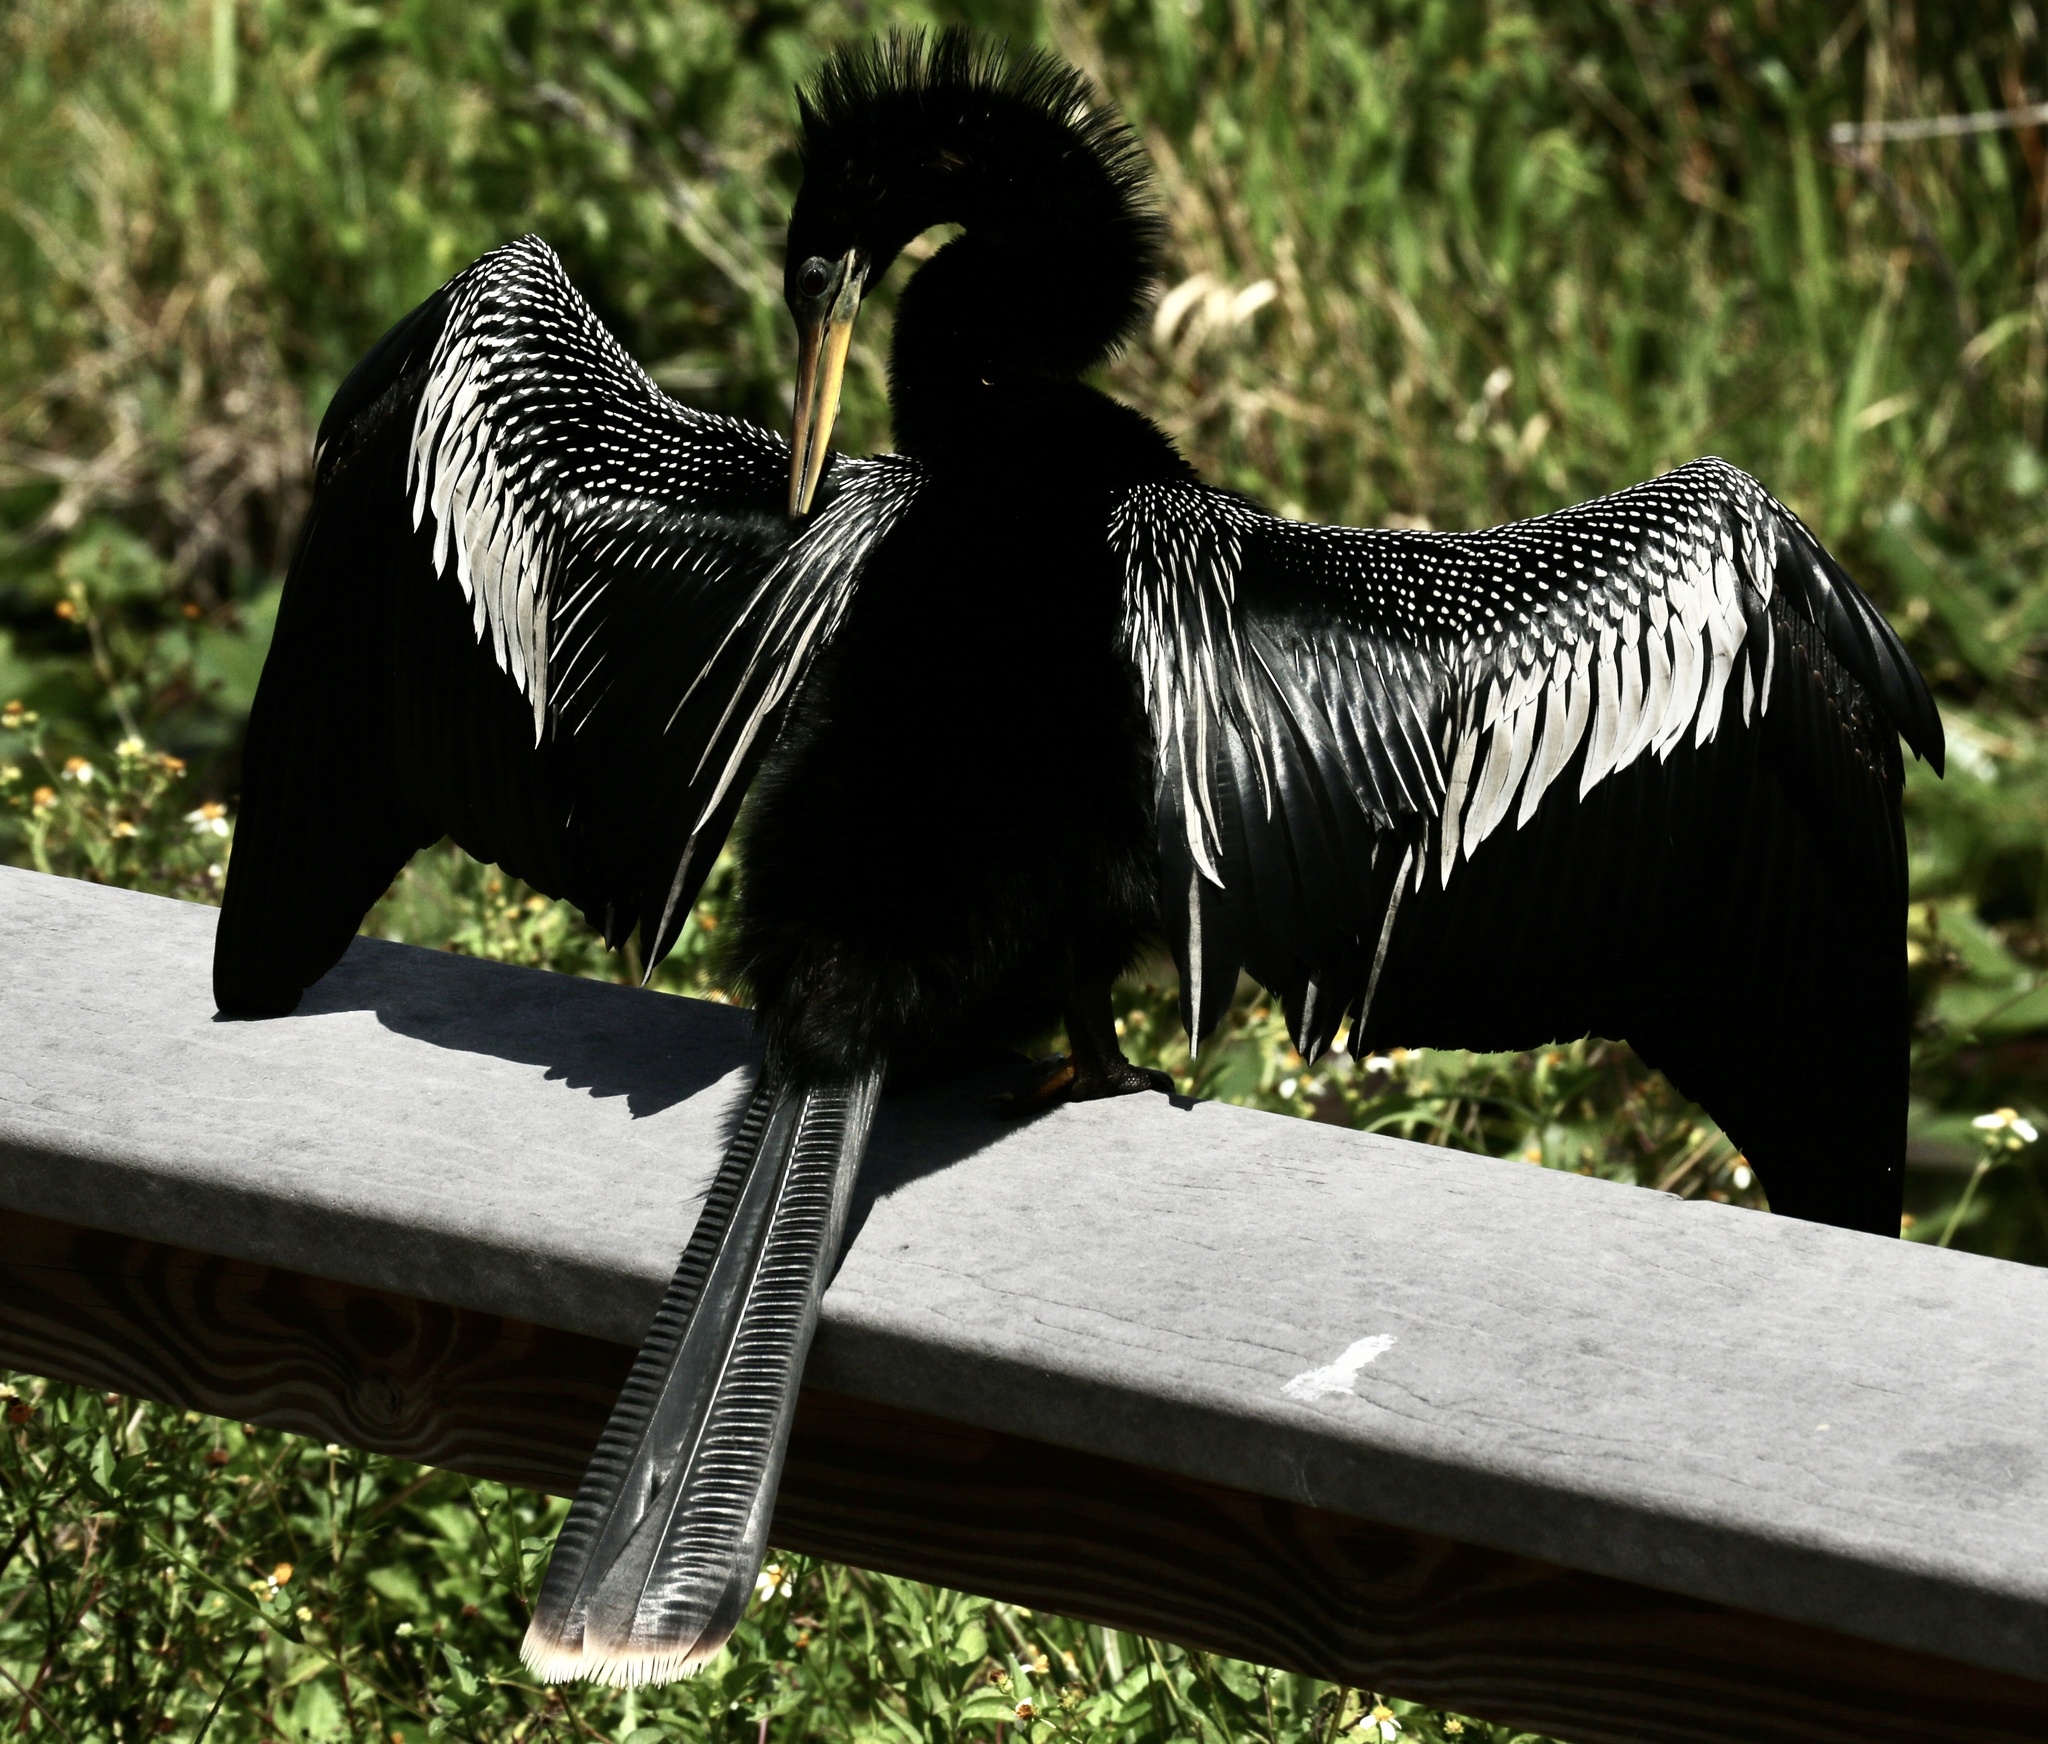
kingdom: Animalia
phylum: Chordata
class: Aves
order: Suliformes
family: Anhingidae
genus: Anhinga
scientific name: Anhinga anhinga
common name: Anhinga
